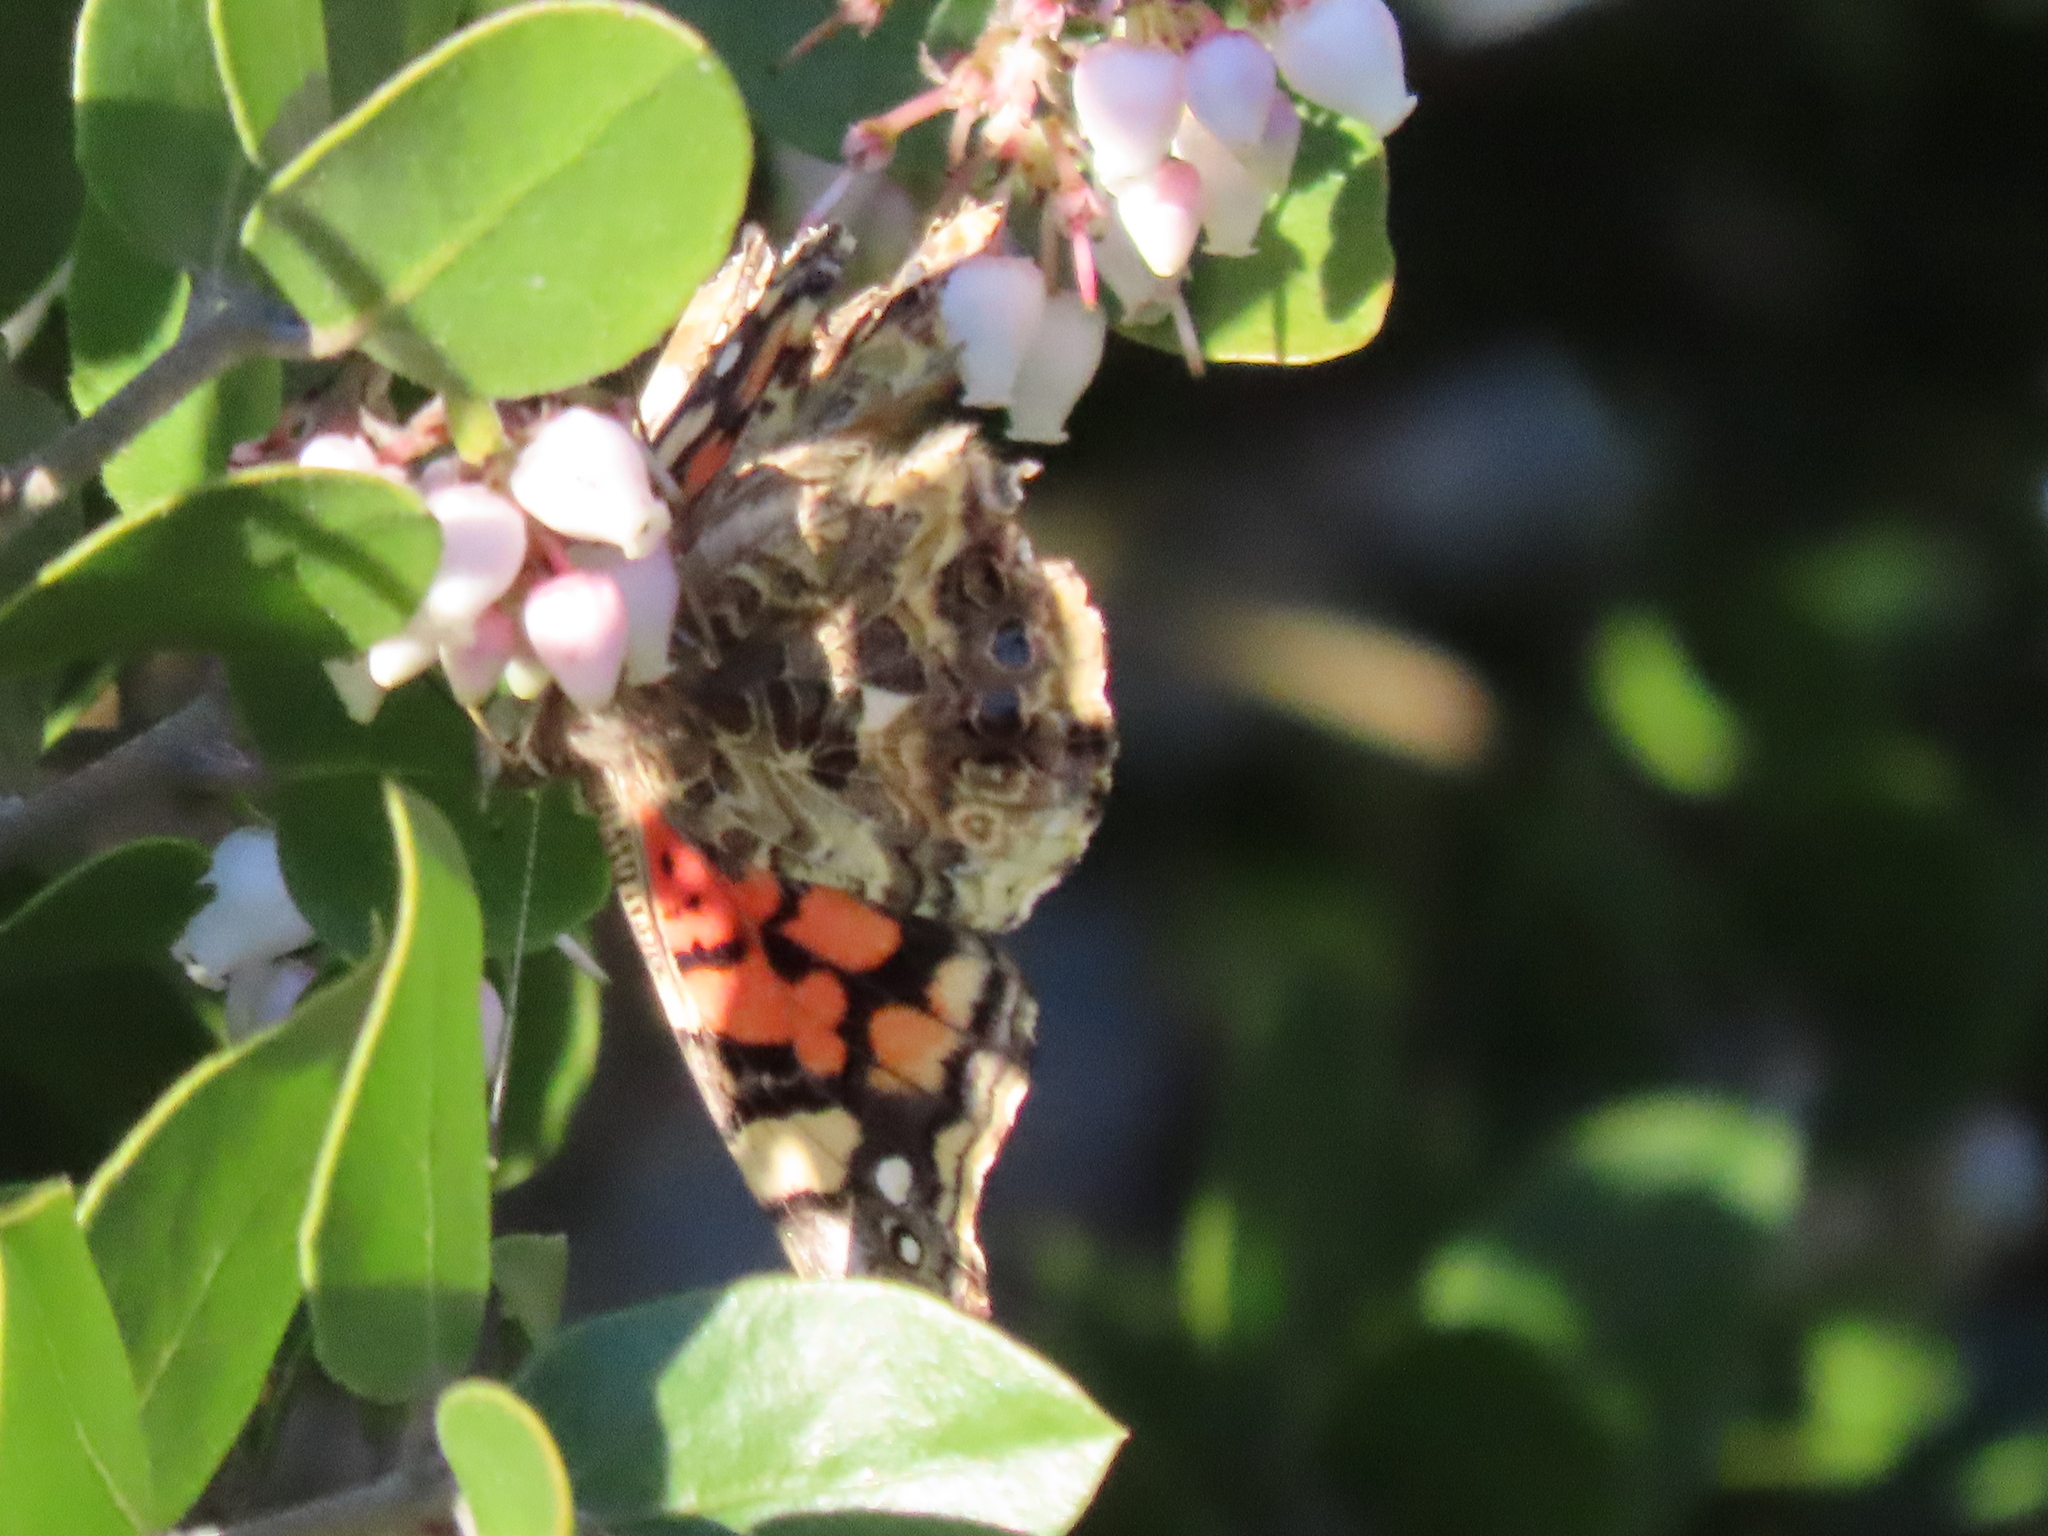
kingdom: Animalia
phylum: Arthropoda
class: Insecta
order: Lepidoptera
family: Nymphalidae
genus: Vanessa
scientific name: Vanessa annabella
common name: West coast lady
